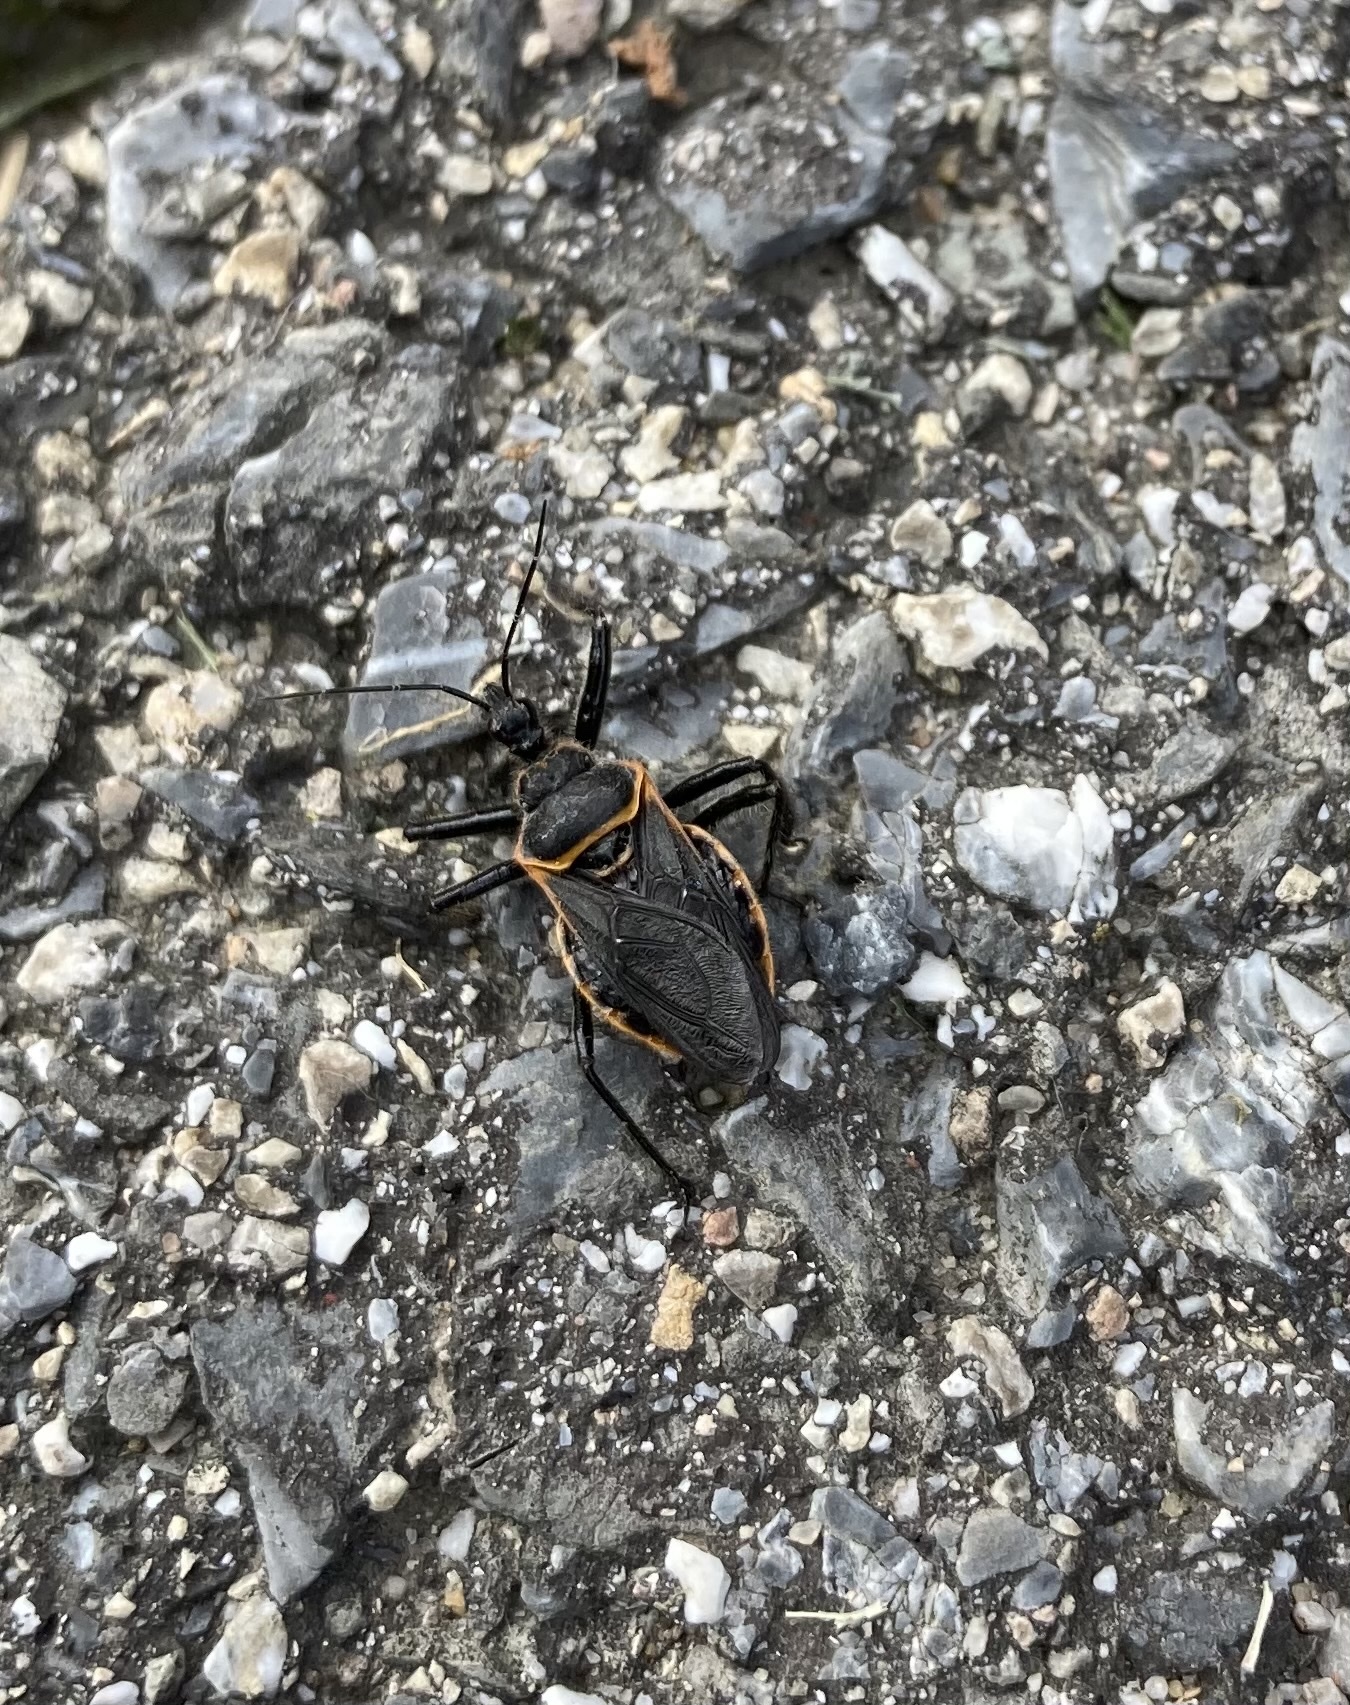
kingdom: Animalia
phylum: Arthropoda
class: Insecta
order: Hemiptera
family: Reduviidae
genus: Apiomerus
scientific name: Apiomerus crassipes
